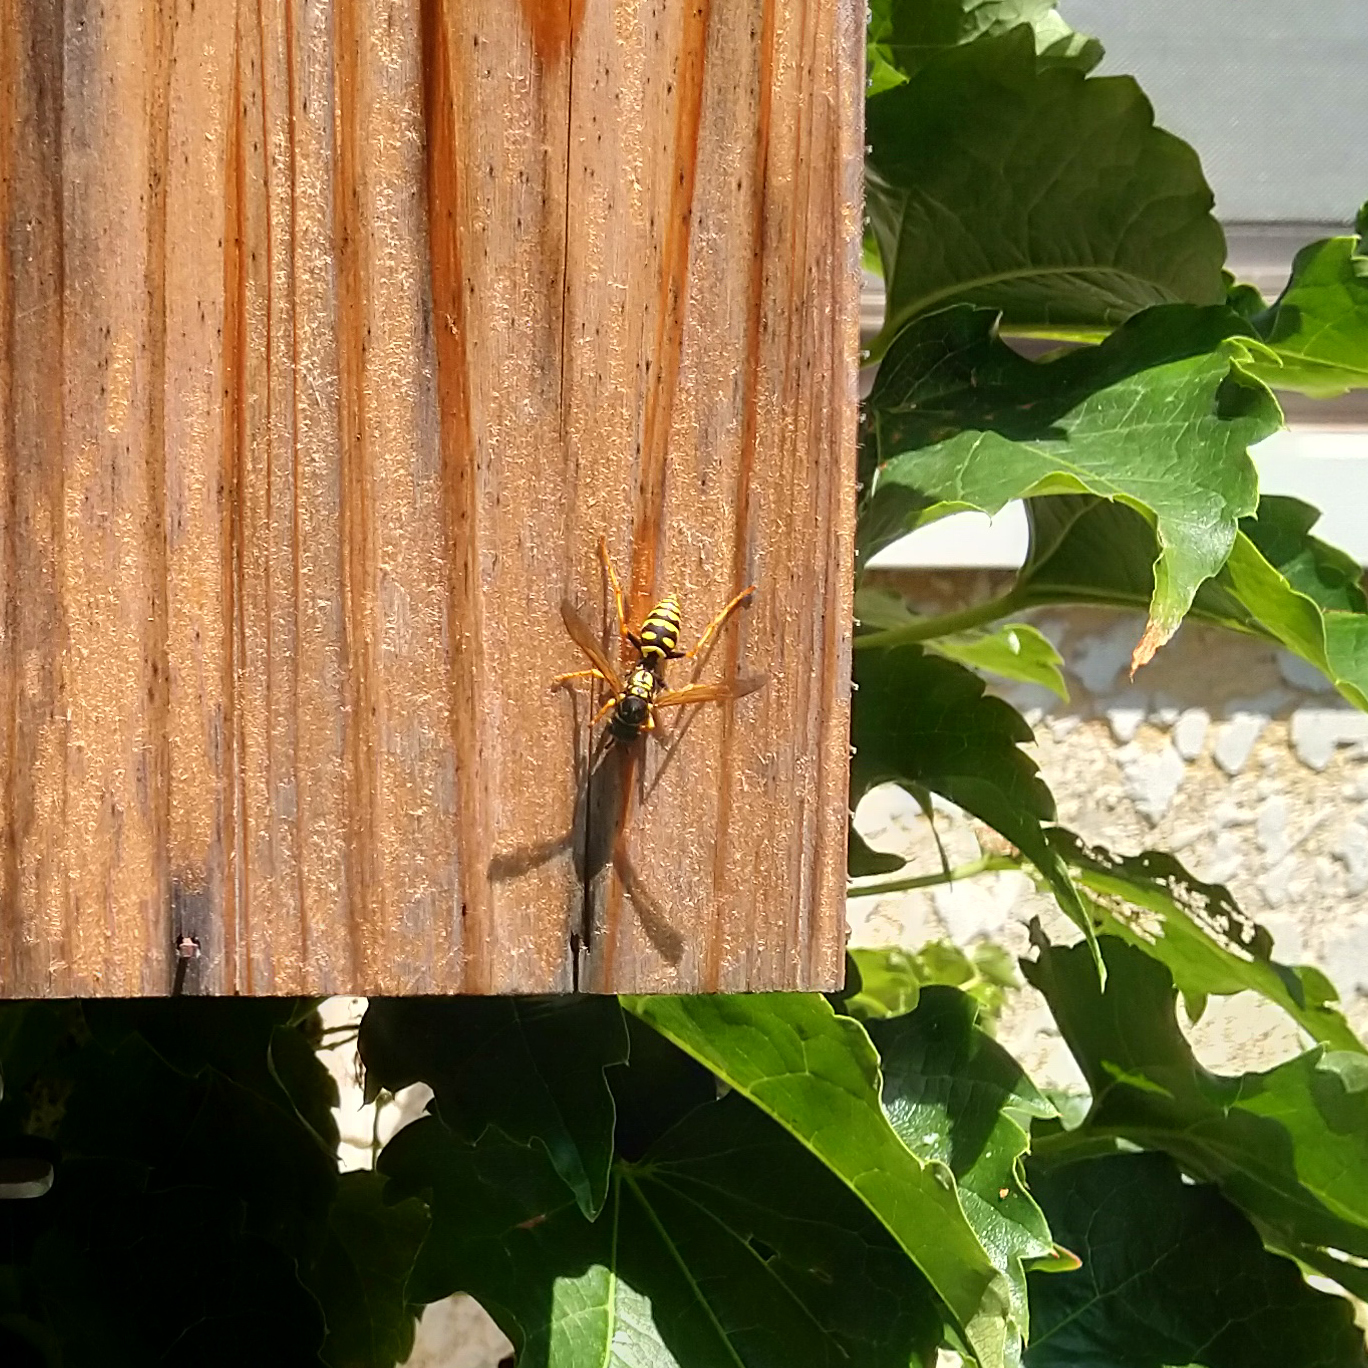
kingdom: Animalia
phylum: Arthropoda
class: Insecta
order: Hymenoptera
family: Eumenidae
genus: Polistes
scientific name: Polistes dominula
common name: Paper wasp
